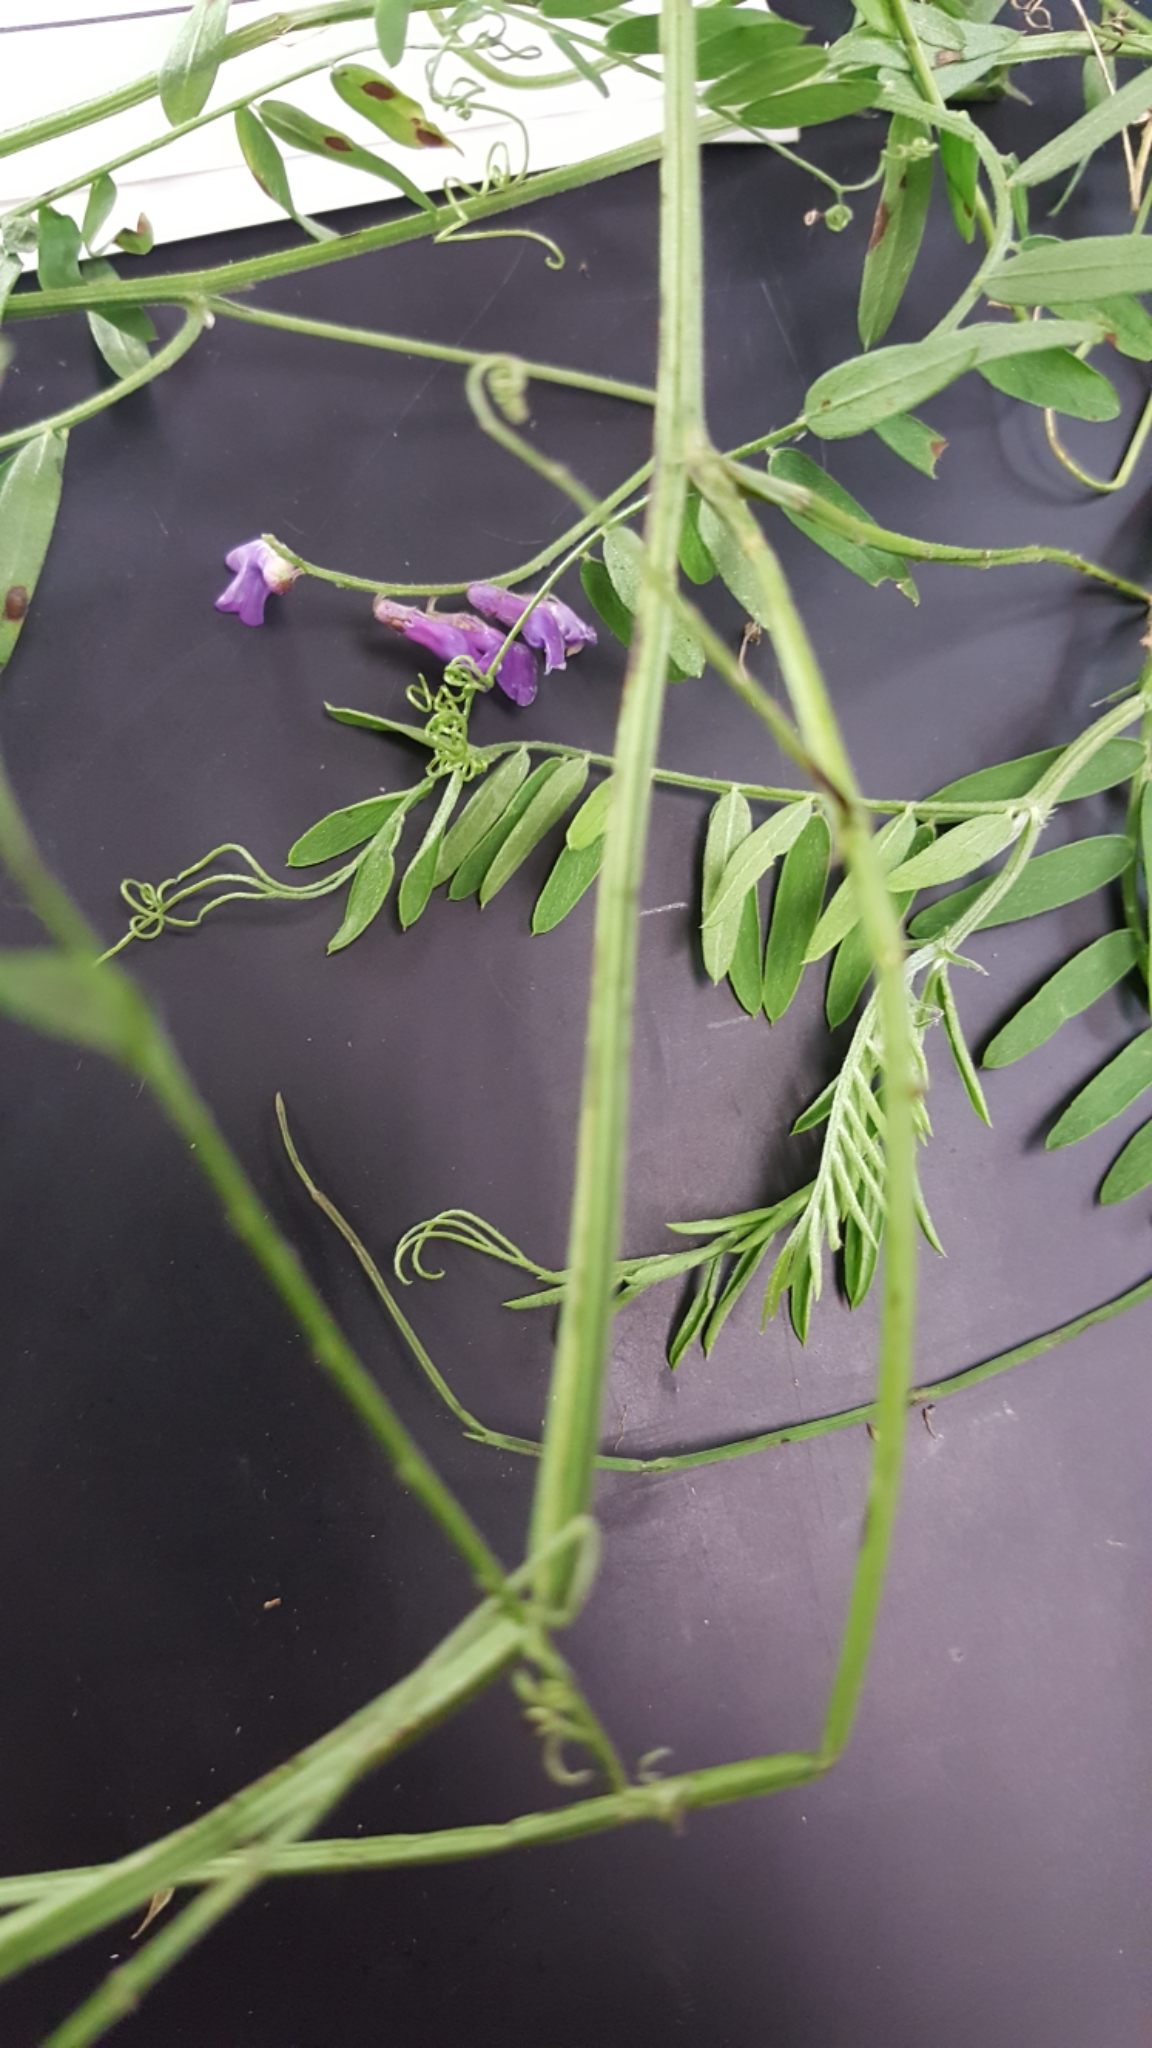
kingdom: Plantae
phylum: Tracheophyta
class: Magnoliopsida
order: Fabales
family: Fabaceae
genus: Vicia
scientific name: Vicia cracca
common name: Bird vetch
